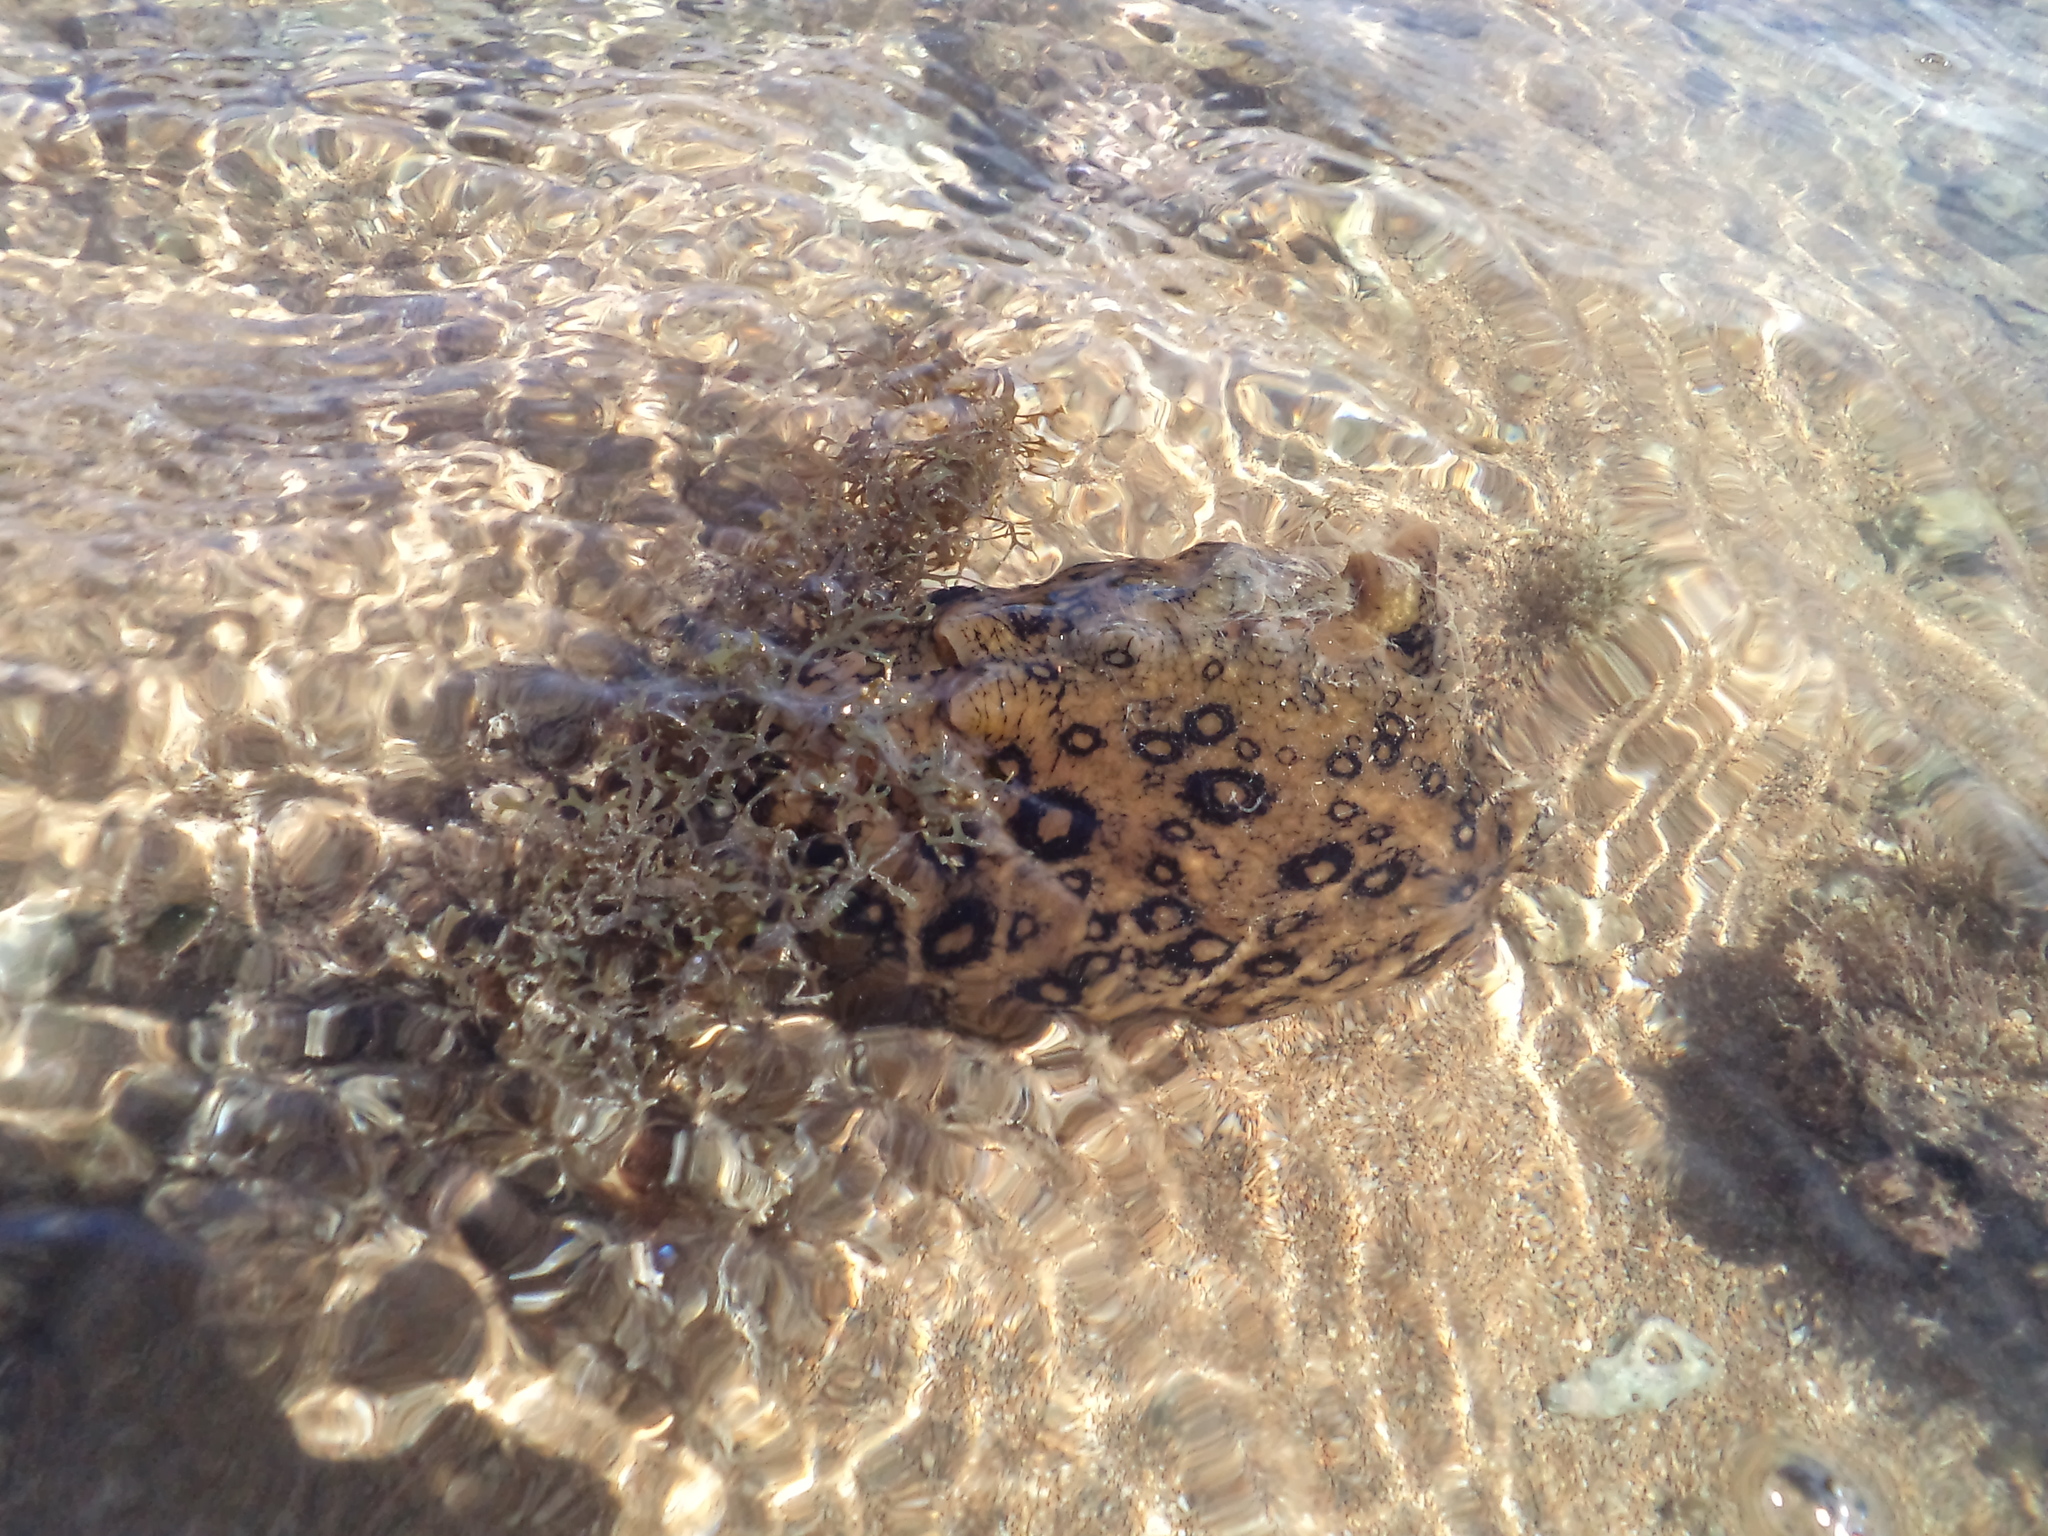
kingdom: Animalia
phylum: Mollusca
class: Gastropoda
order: Aplysiida
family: Aplysiidae
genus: Aplysia
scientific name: Aplysia dactylomela
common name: Large-spotted sea hare
